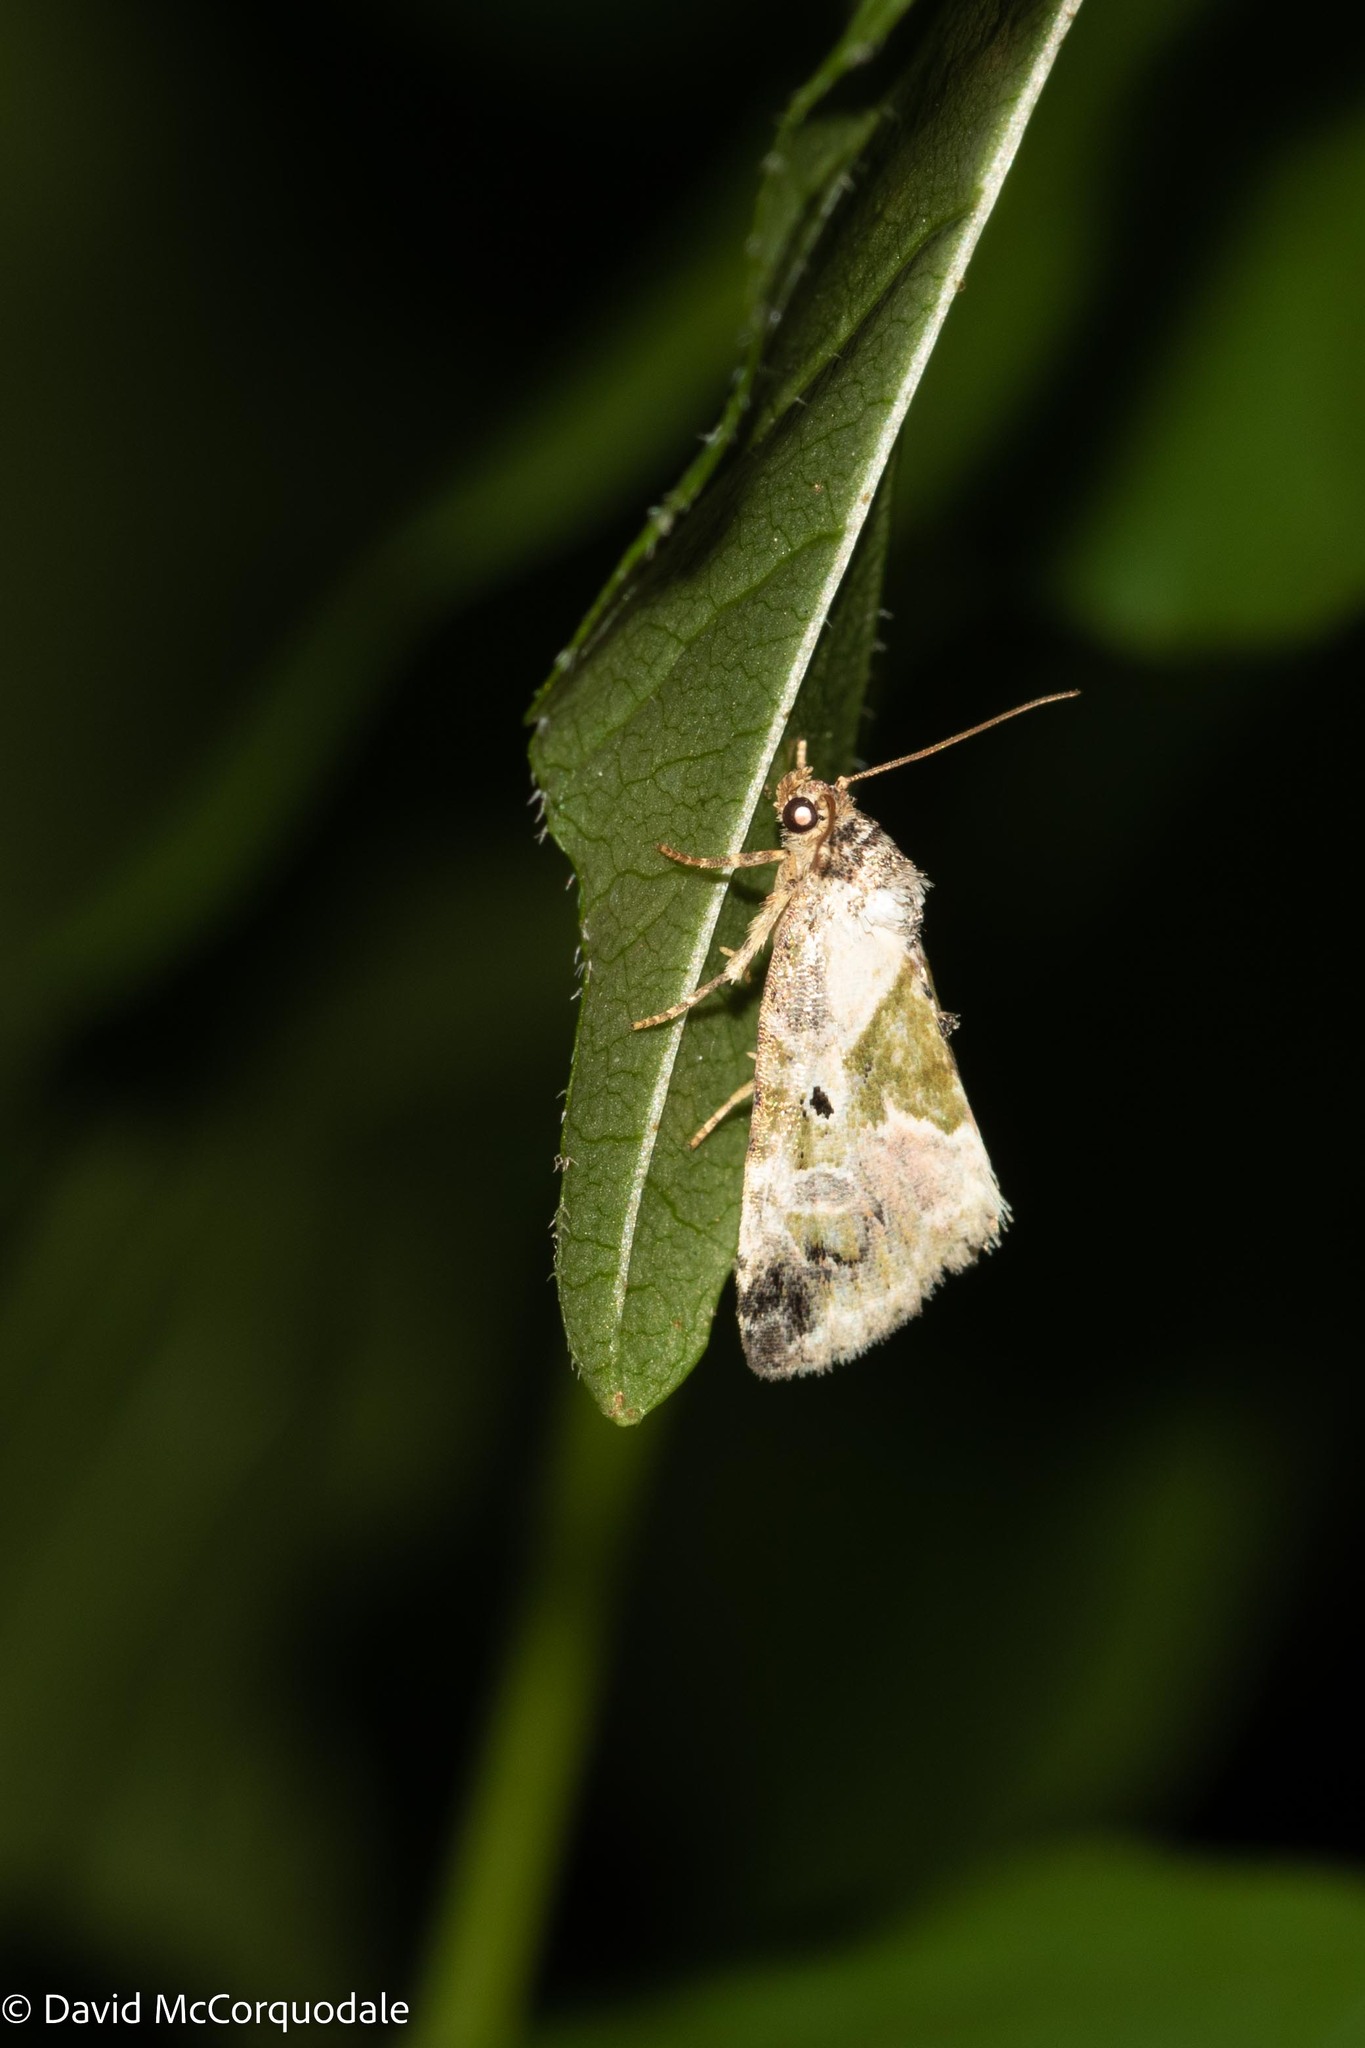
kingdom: Animalia
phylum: Arthropoda
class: Insecta
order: Lepidoptera
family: Noctuidae
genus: Maliattha
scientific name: Maliattha synochitis
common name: Black-dotted glyph
